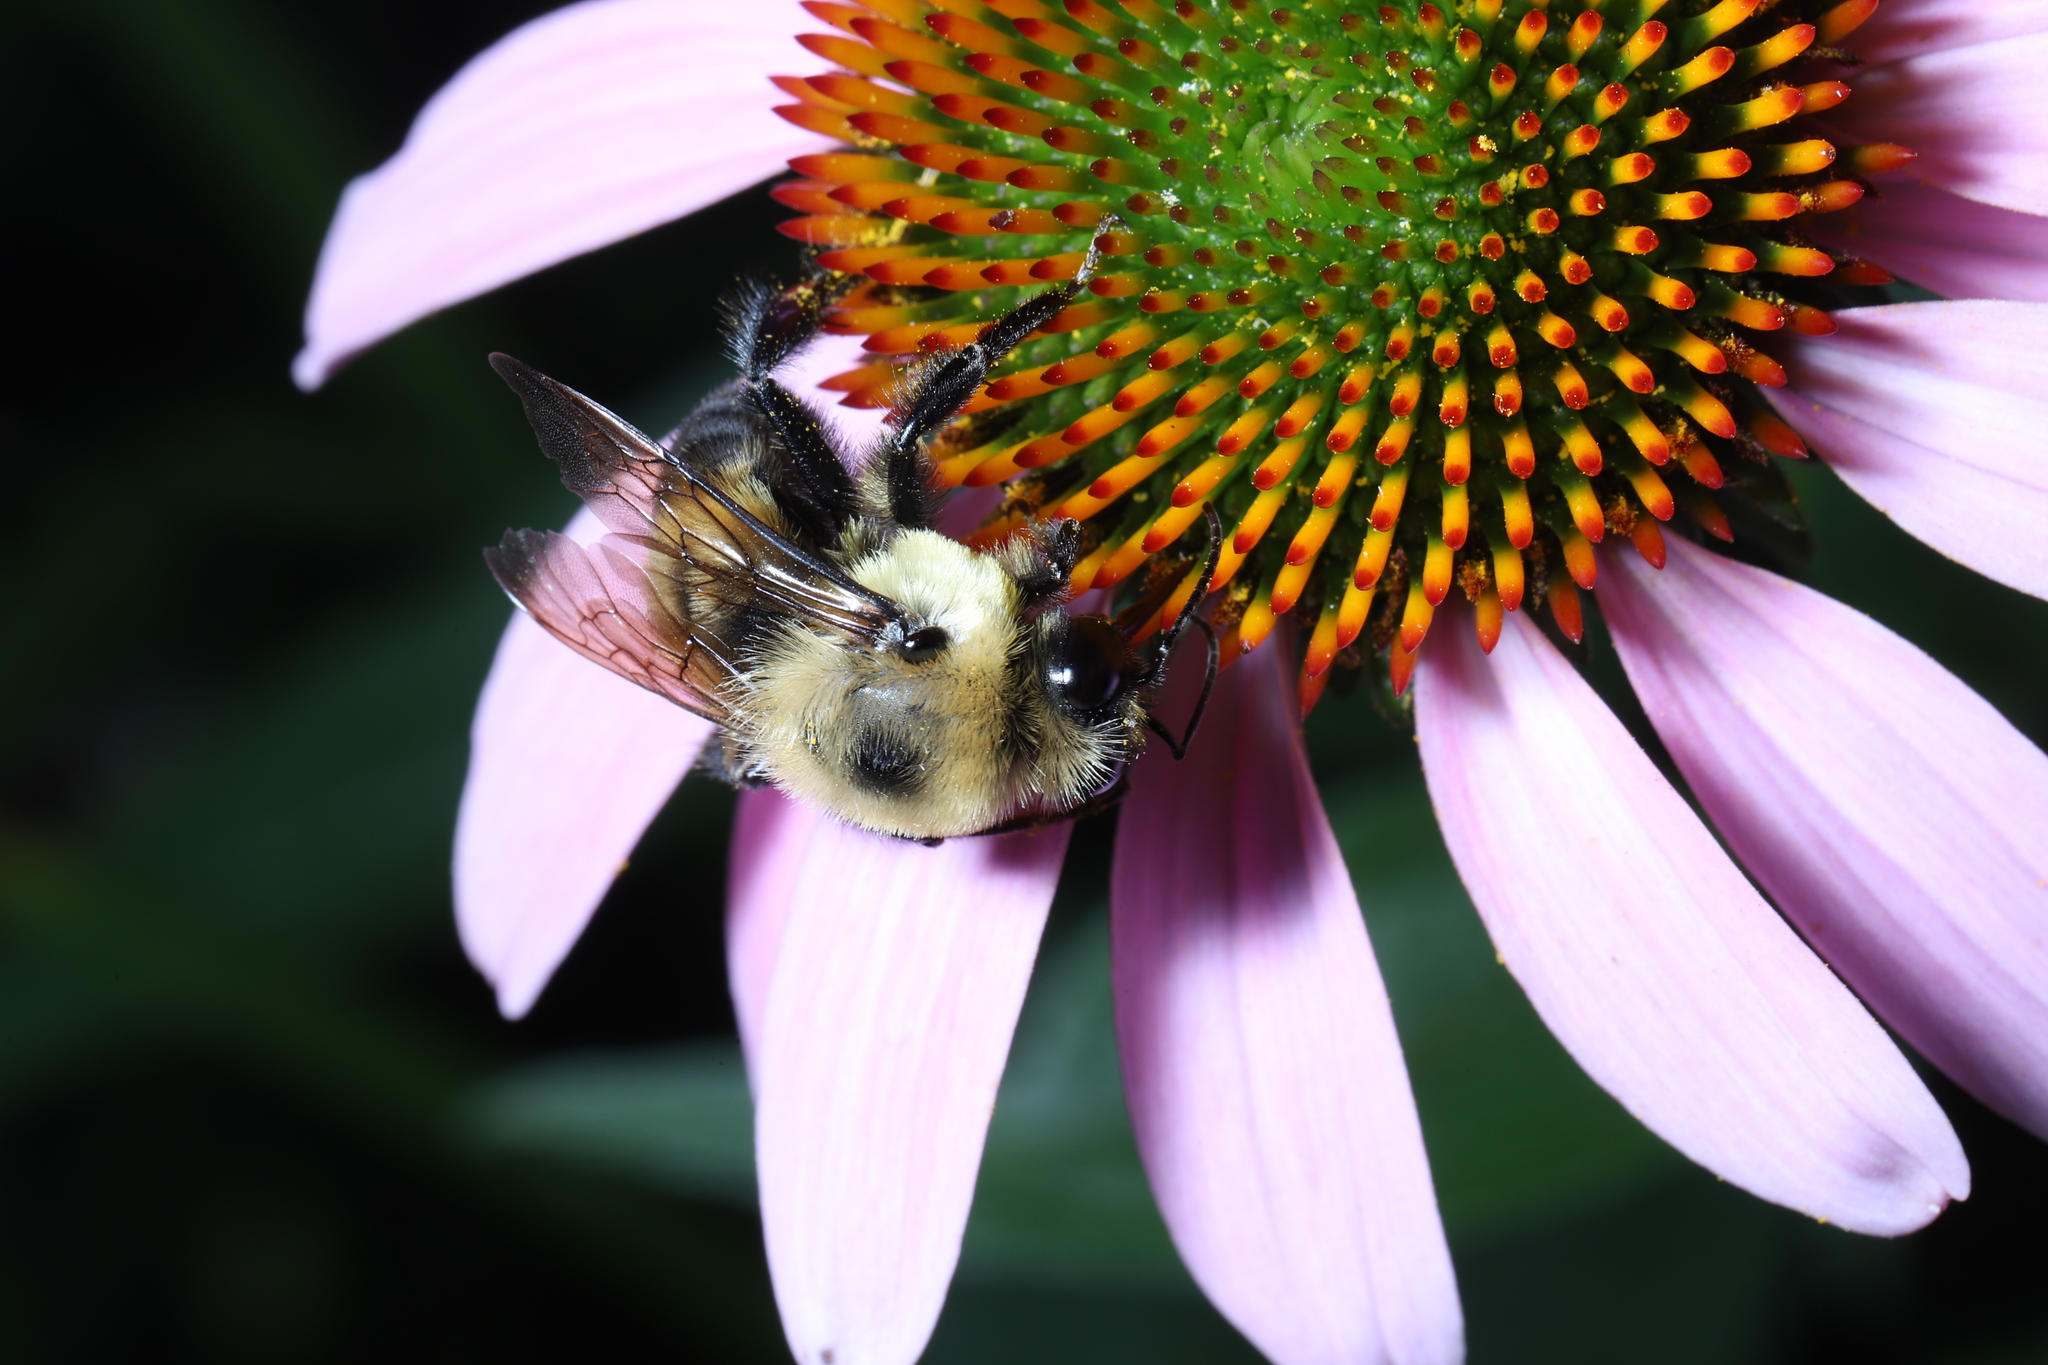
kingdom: Animalia
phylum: Arthropoda
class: Insecta
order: Hymenoptera
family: Apidae
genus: Bombus
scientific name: Bombus griseocollis
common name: Brown-belted bumble bee
